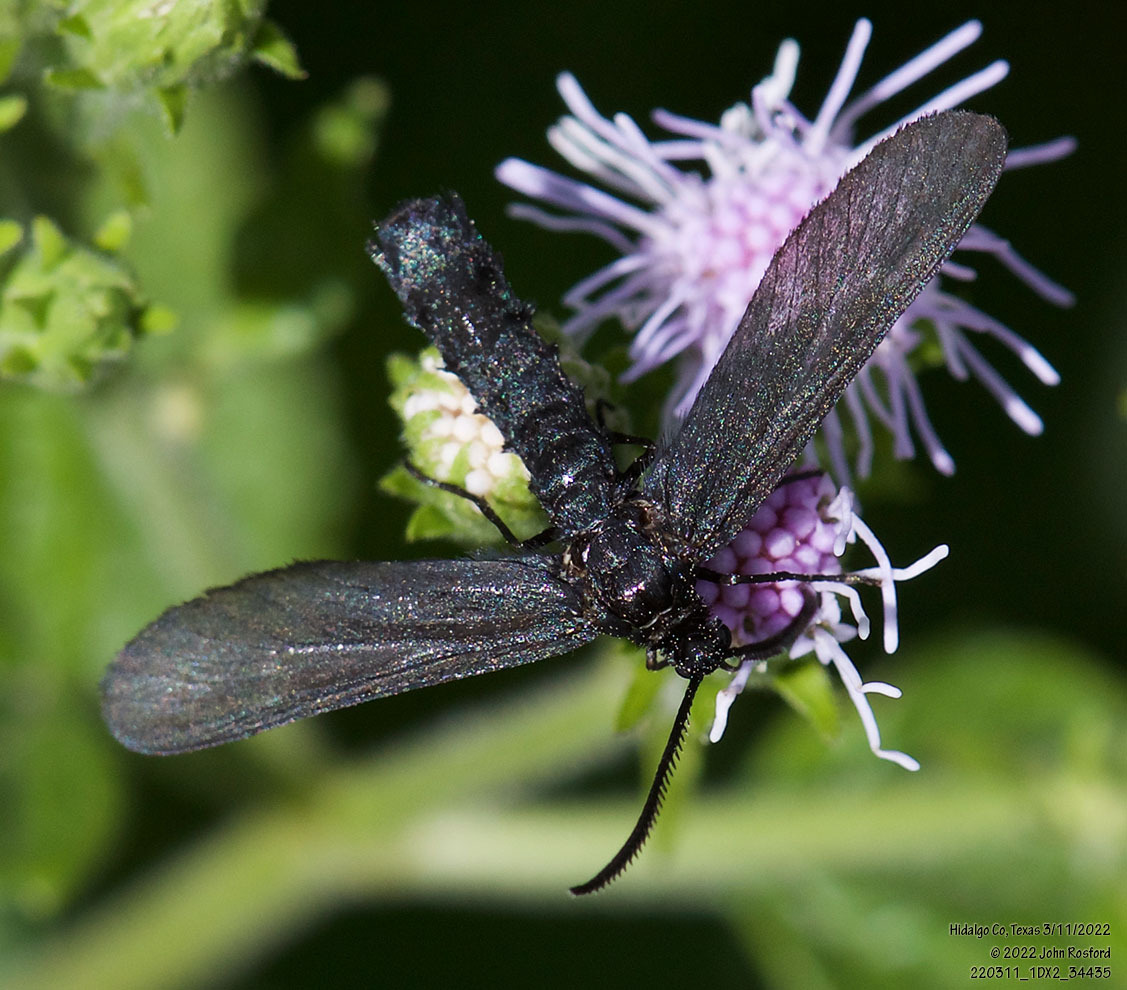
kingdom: Animalia
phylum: Arthropoda
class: Insecta
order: Lepidoptera
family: Zygaenidae
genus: Harrisina
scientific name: Harrisina coracina
